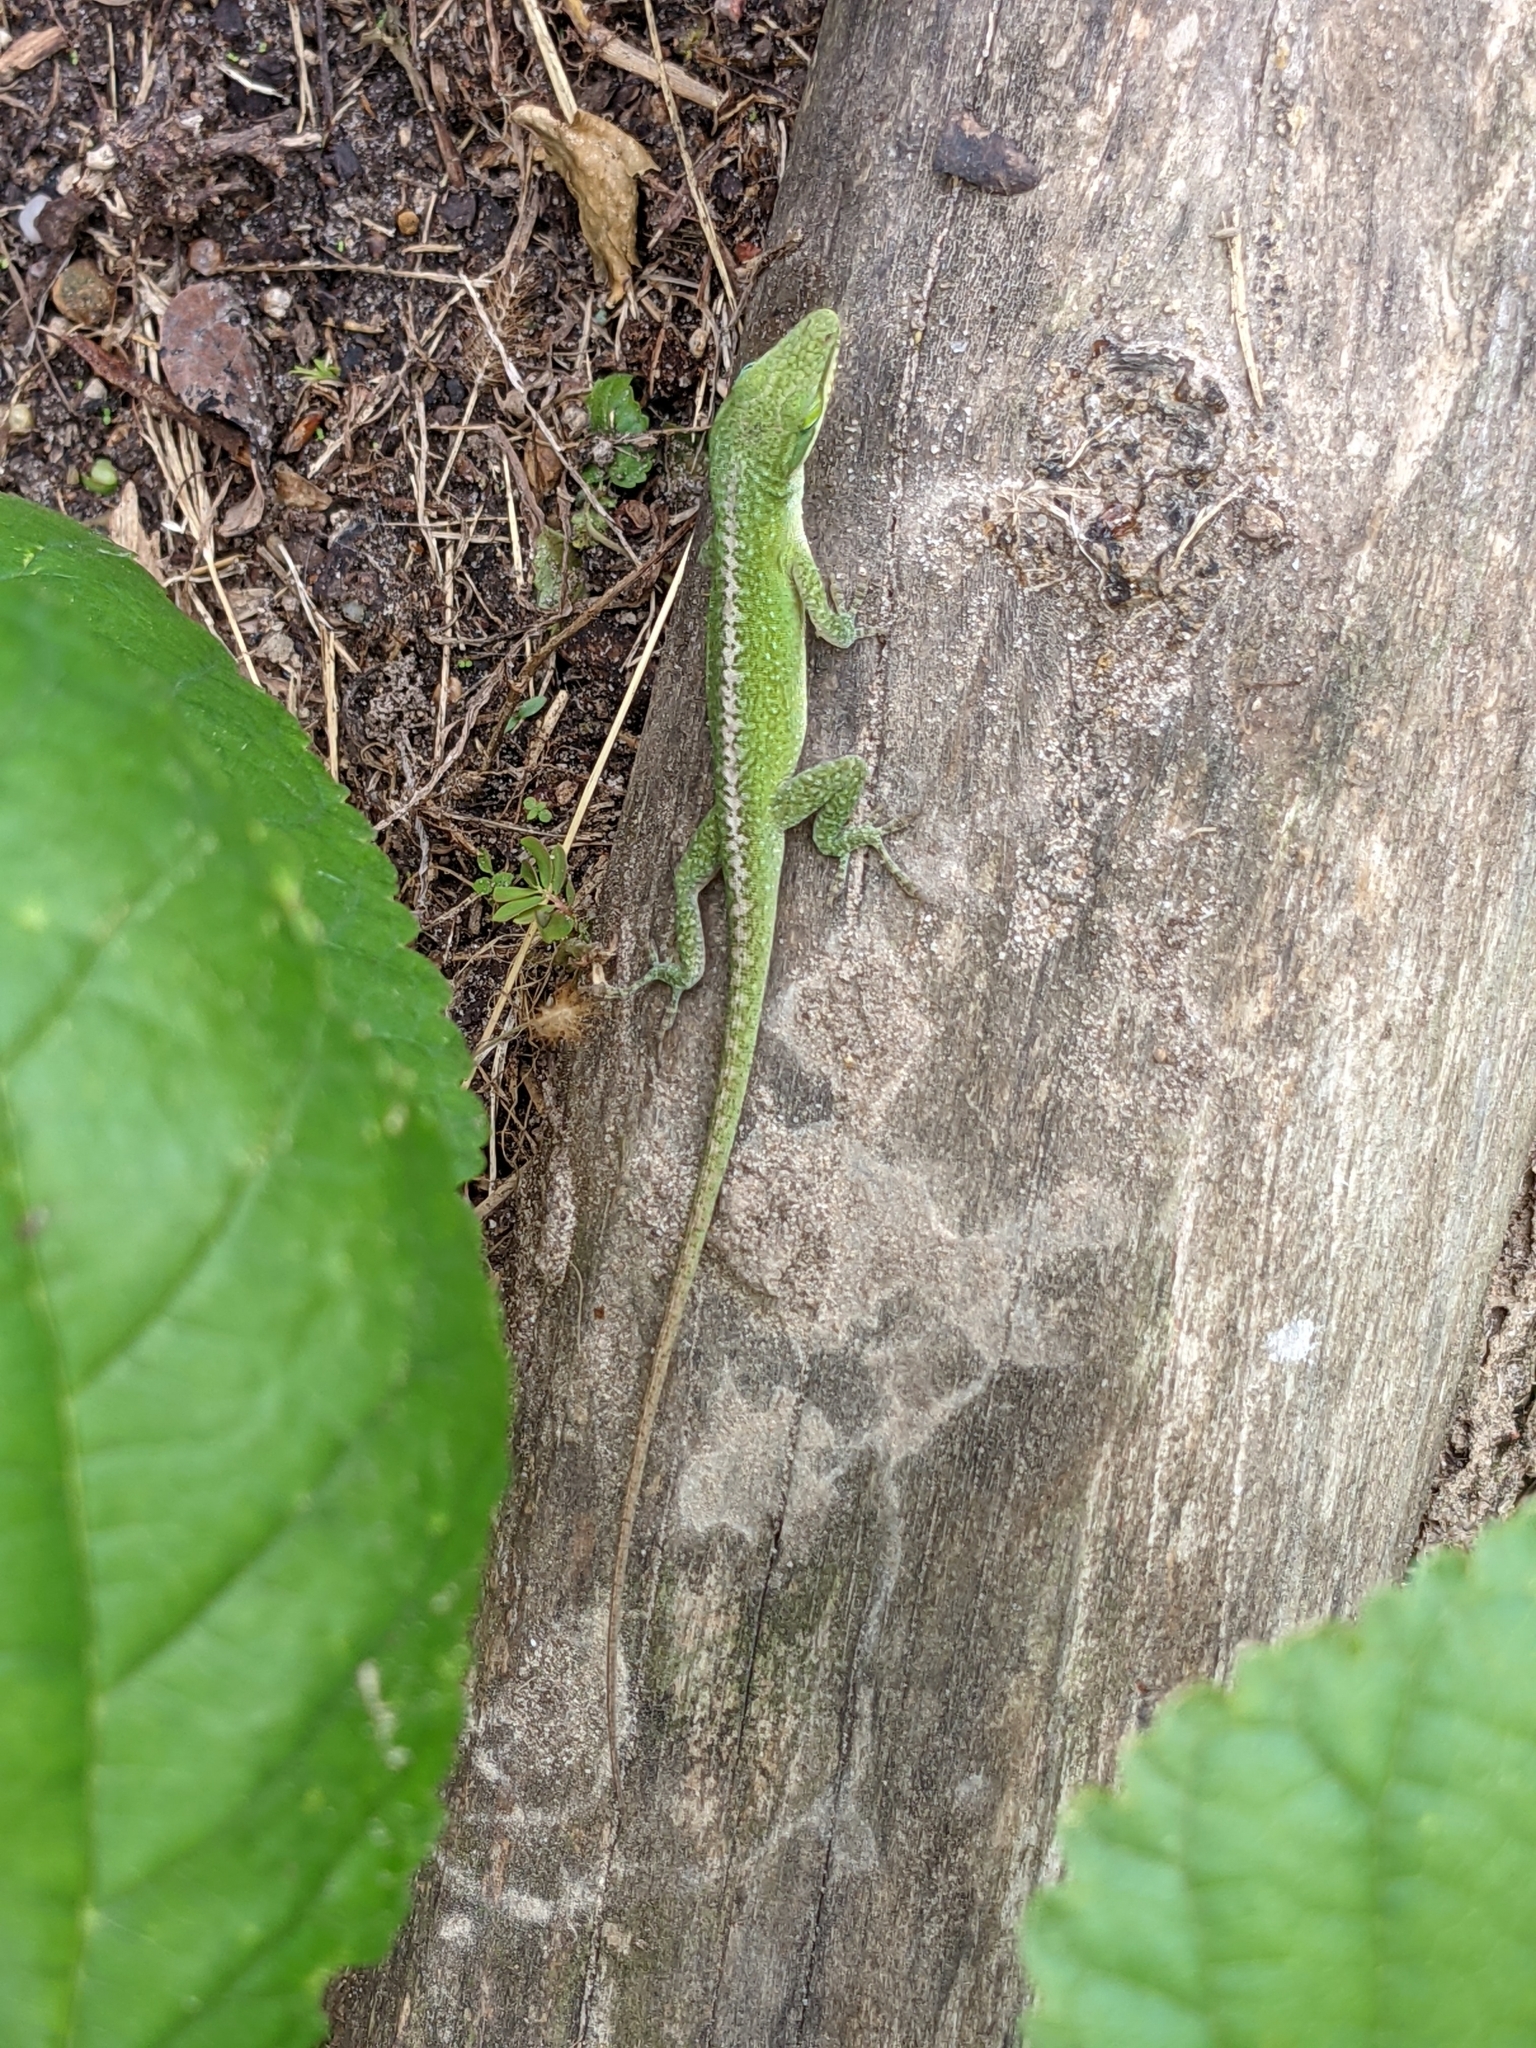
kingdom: Animalia
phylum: Chordata
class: Squamata
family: Dactyloidae
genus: Anolis
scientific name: Anolis carolinensis
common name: Green anole
